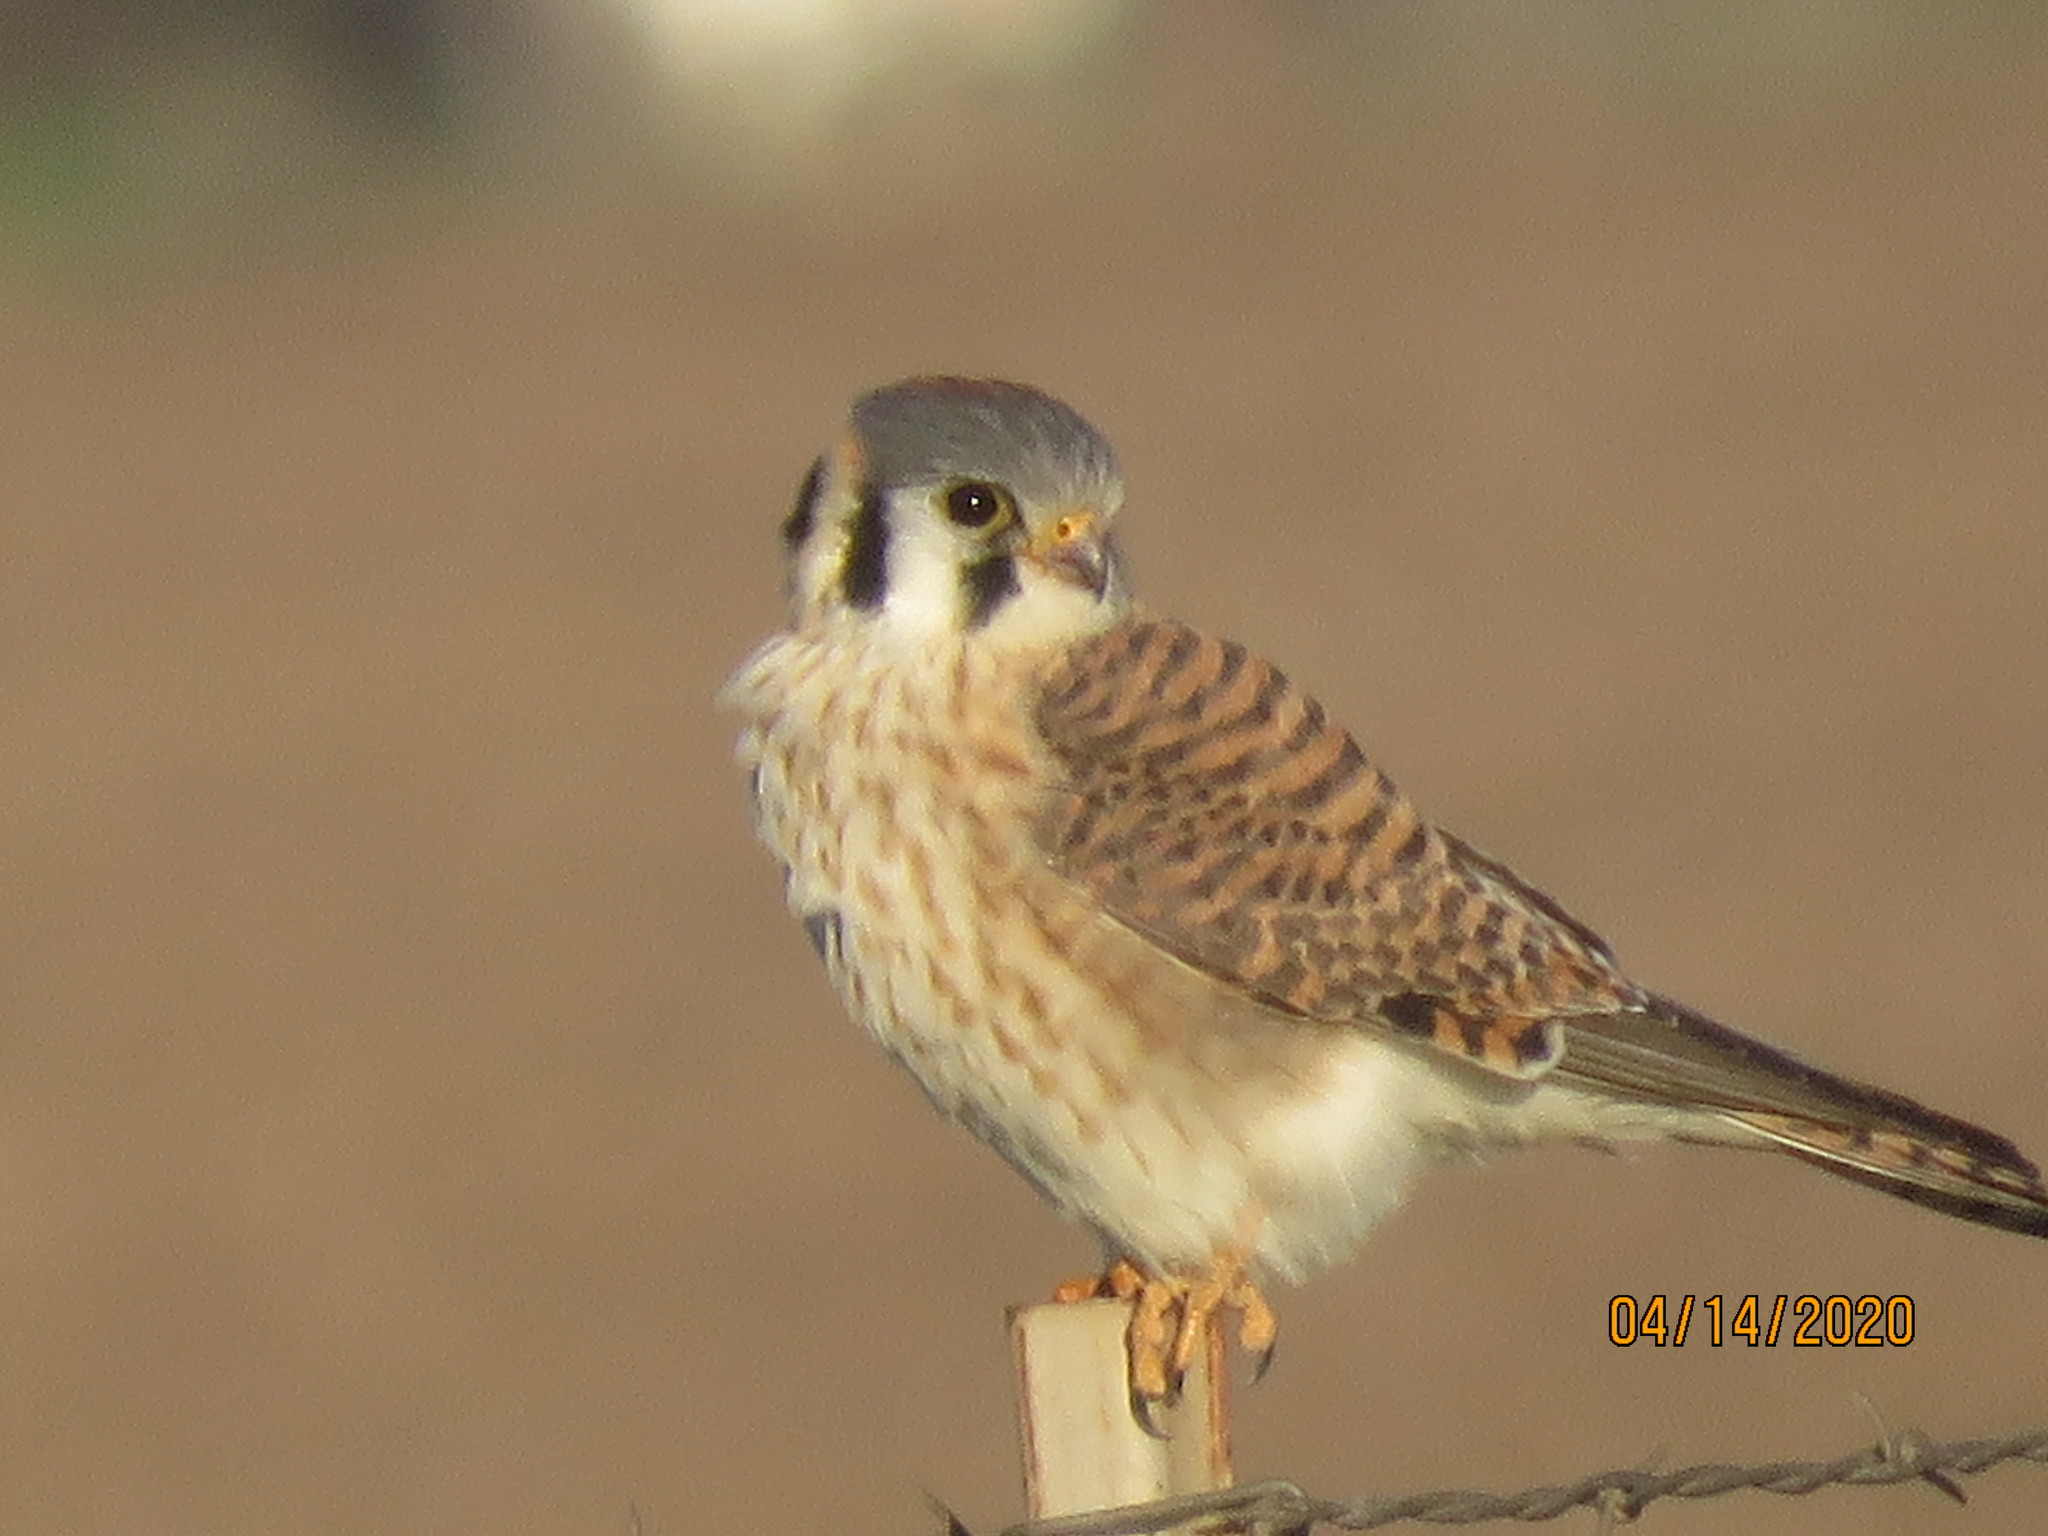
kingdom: Animalia
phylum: Chordata
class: Aves
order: Falconiformes
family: Falconidae
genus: Falco
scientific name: Falco sparverius
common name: American kestrel
